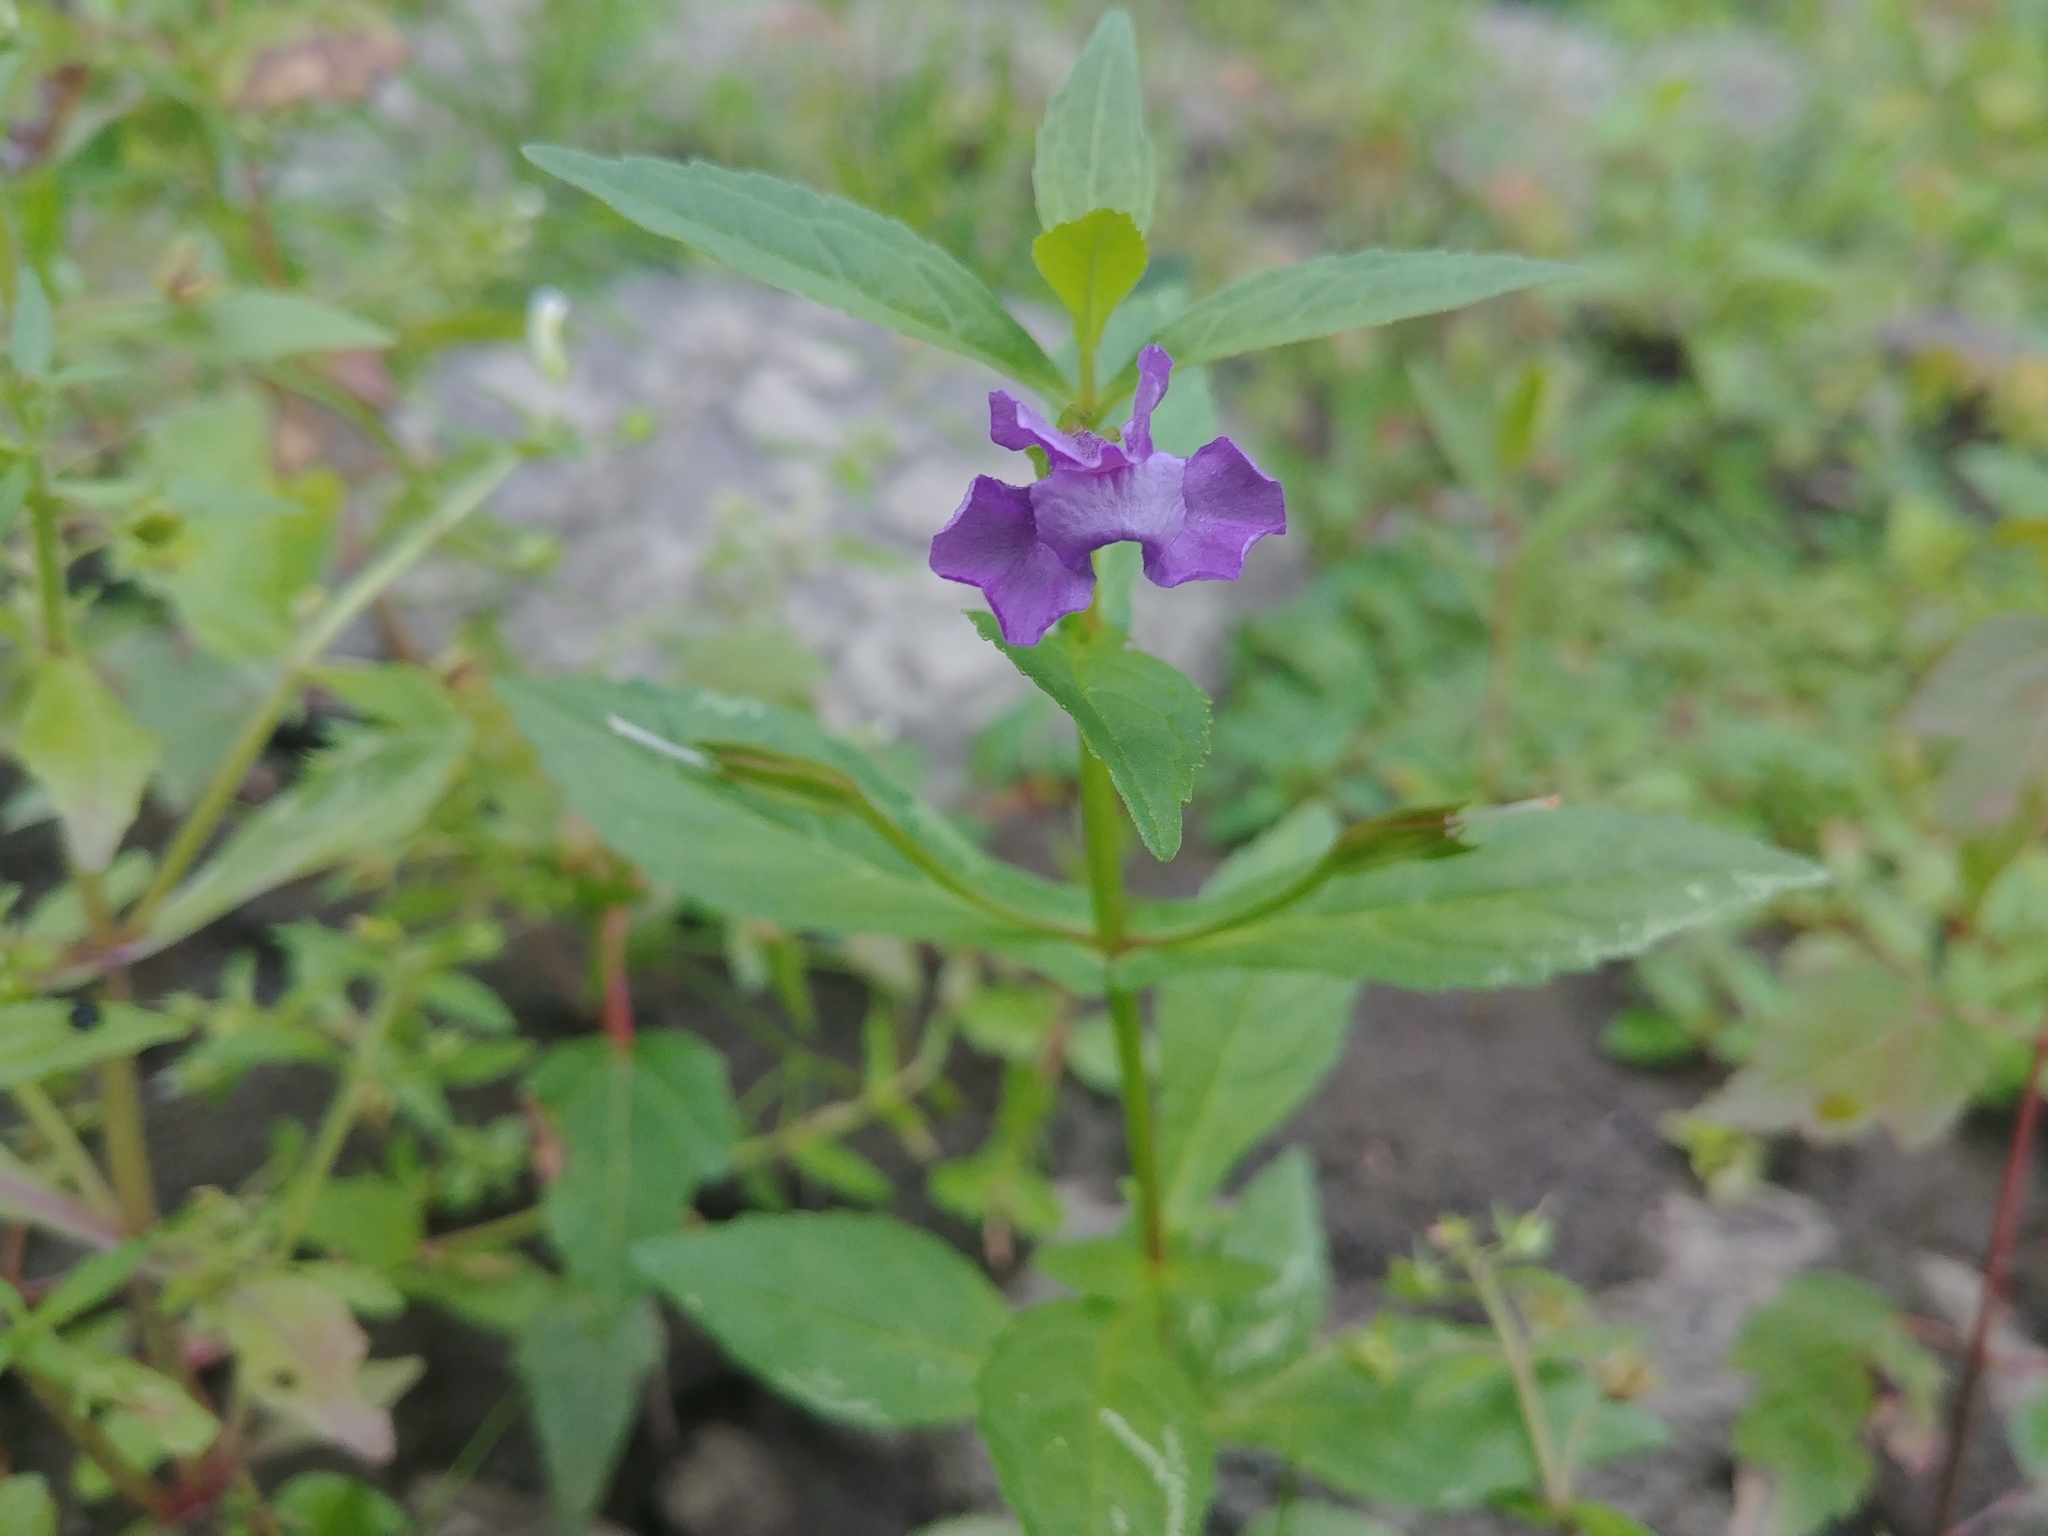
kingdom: Plantae
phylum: Tracheophyta
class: Magnoliopsida
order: Lamiales
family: Phrymaceae
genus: Mimulus
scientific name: Mimulus ringens
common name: Allegheny monkeyflower
